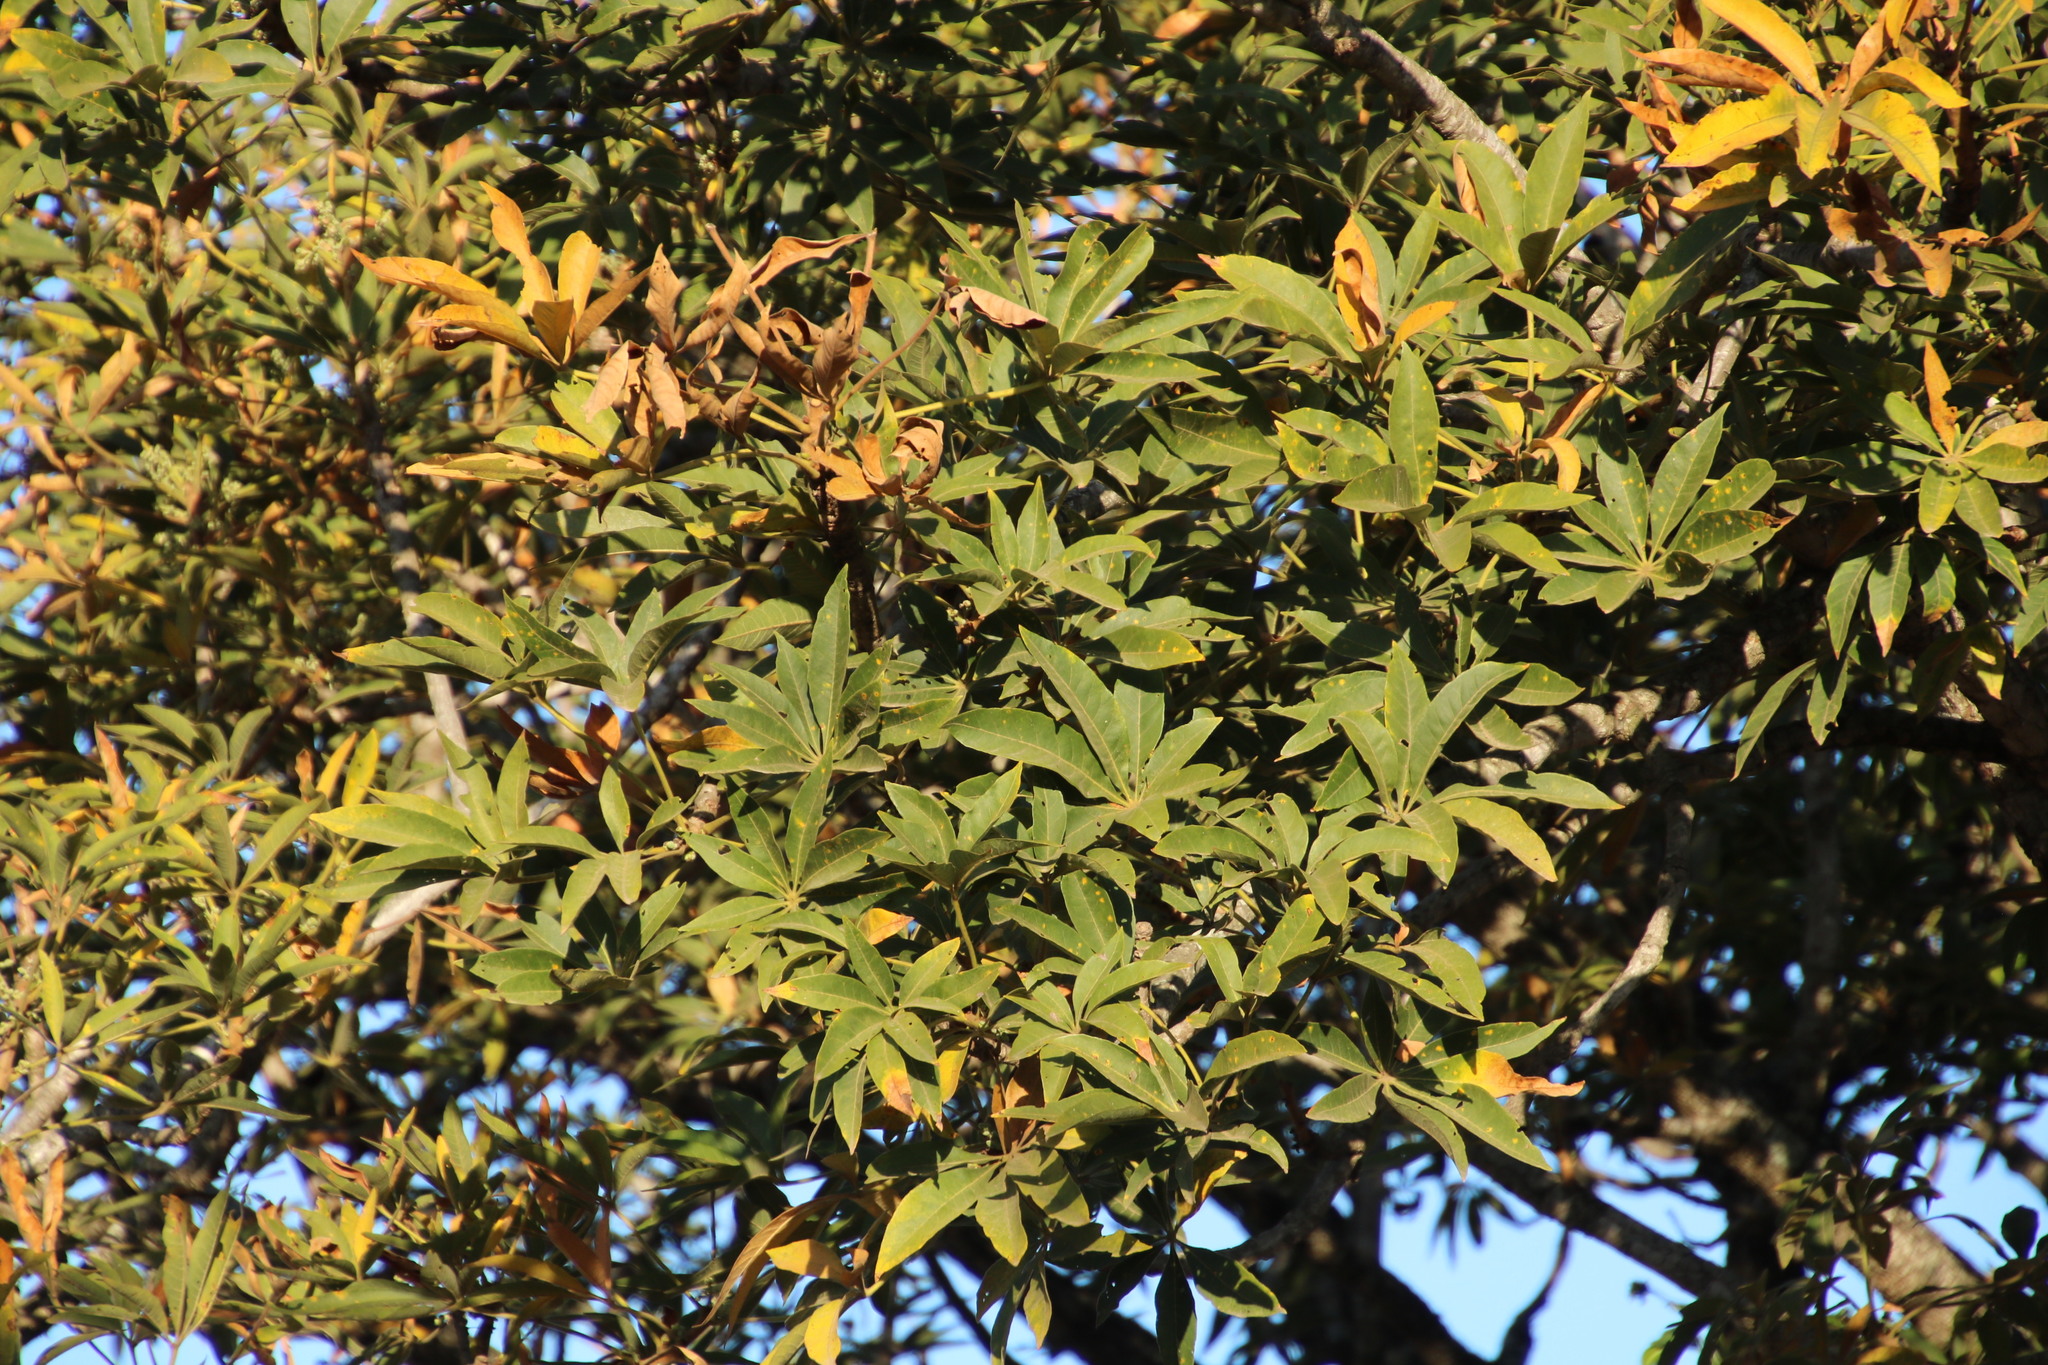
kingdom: Plantae
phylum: Tracheophyta
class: Magnoliopsida
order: Malvales
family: Malvaceae
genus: Sterculia
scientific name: Sterculia murex
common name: Lowveld star-chestnut
